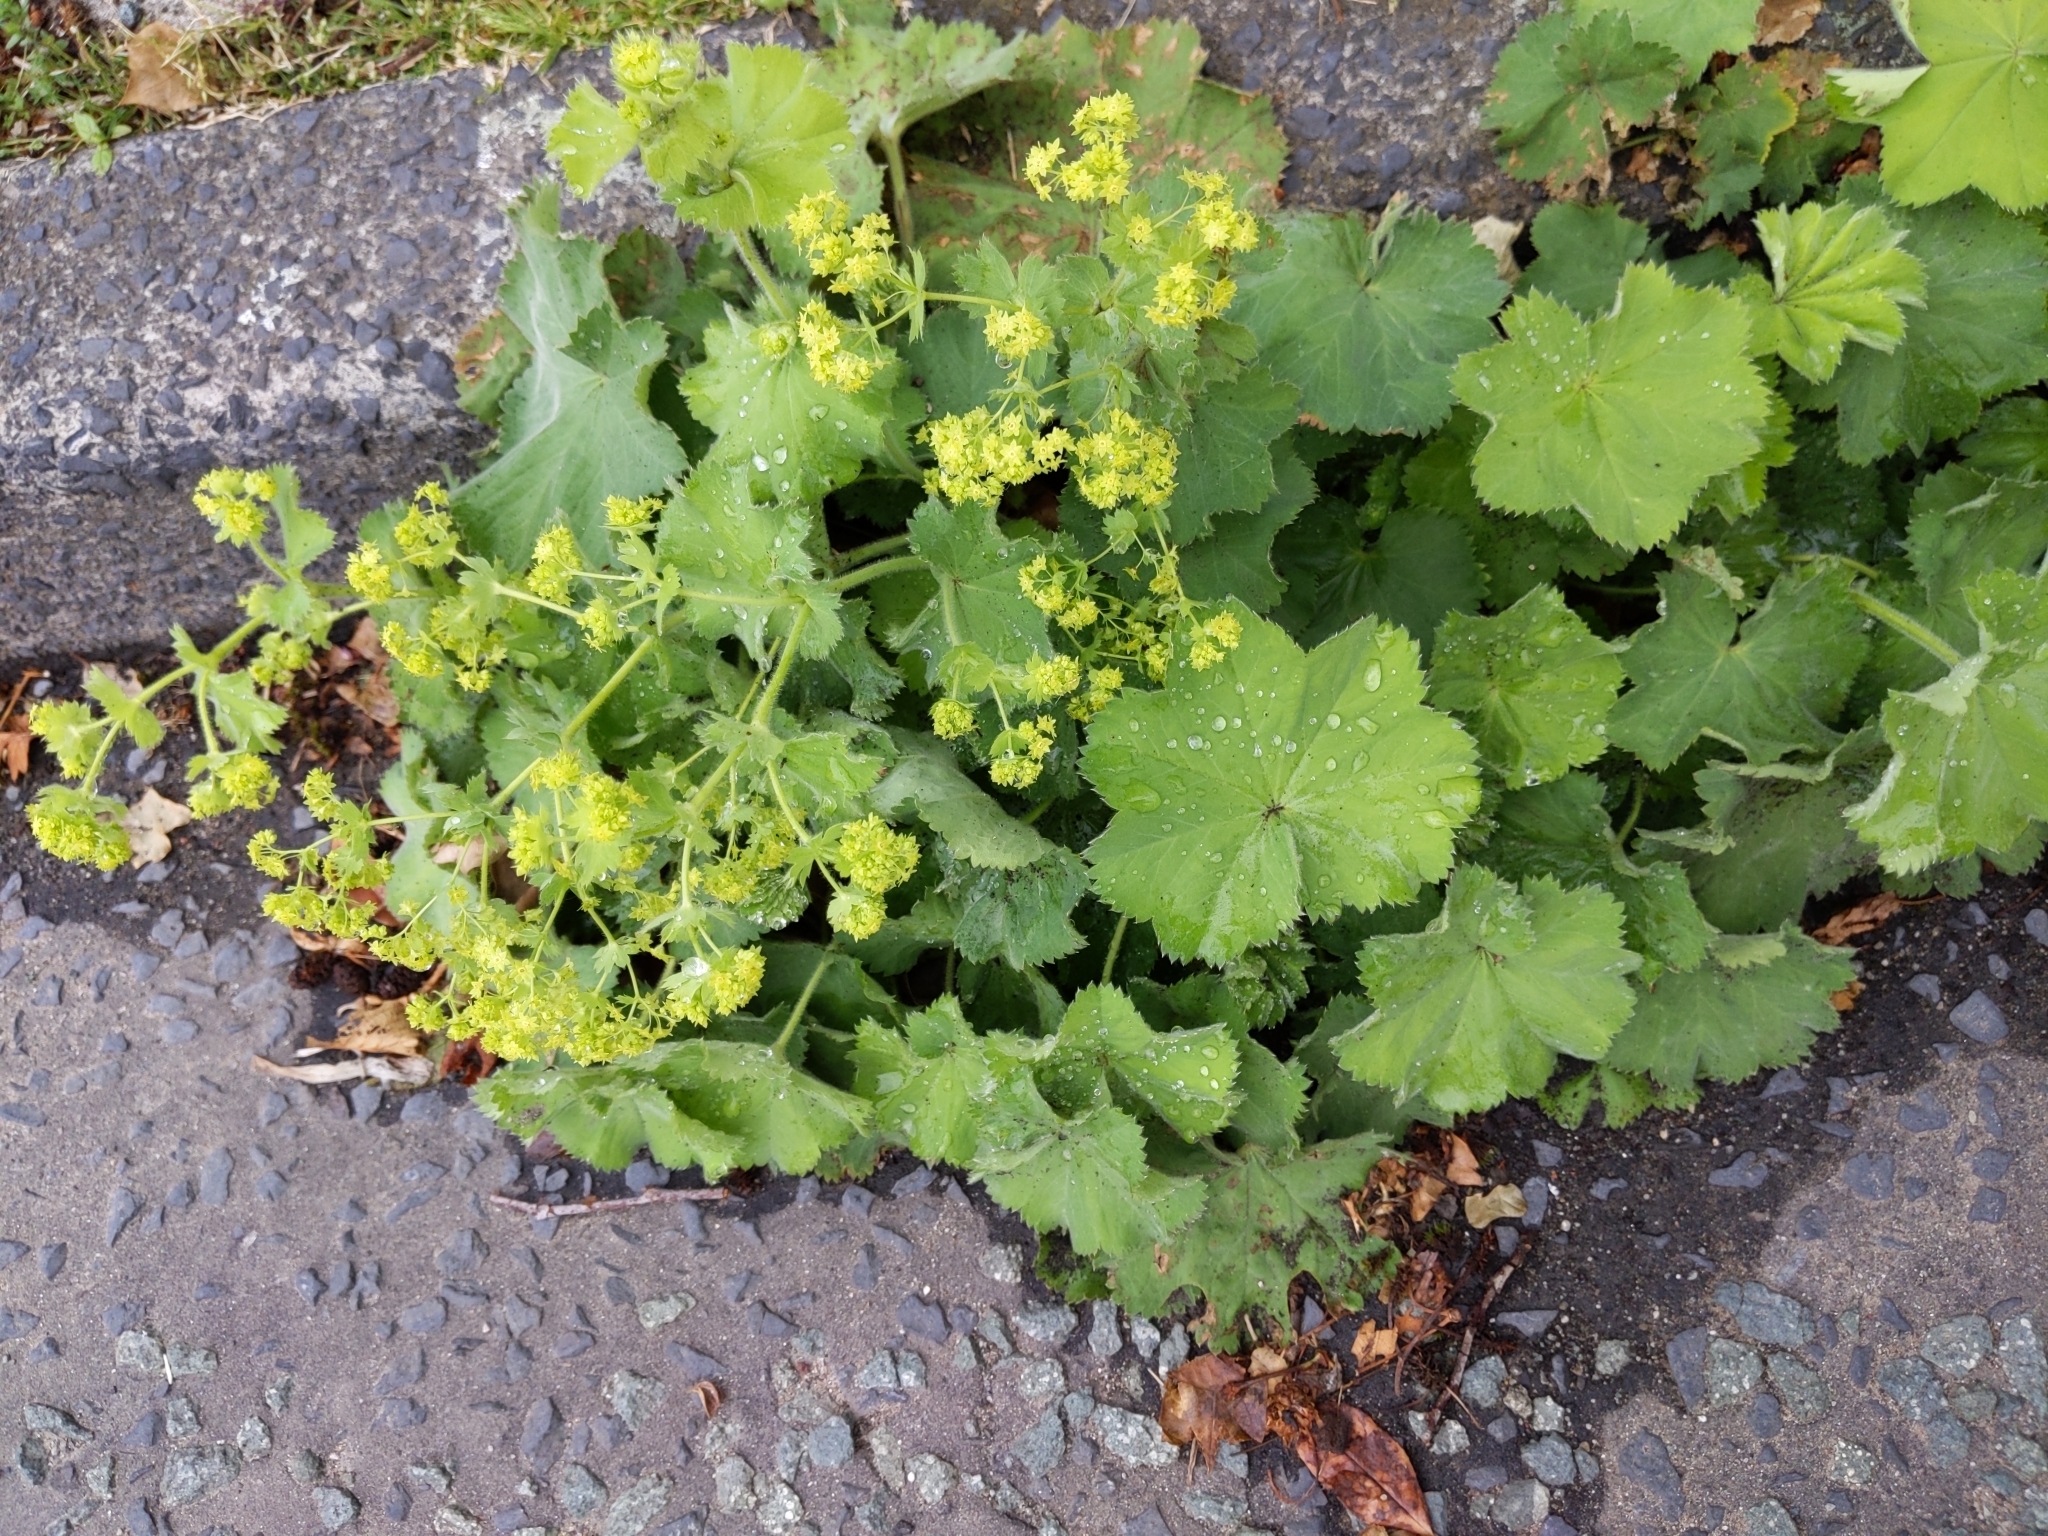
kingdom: Plantae
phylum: Tracheophyta
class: Magnoliopsida
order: Rosales
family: Rosaceae
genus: Alchemilla
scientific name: Alchemilla mollis
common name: Lady's-mantle
